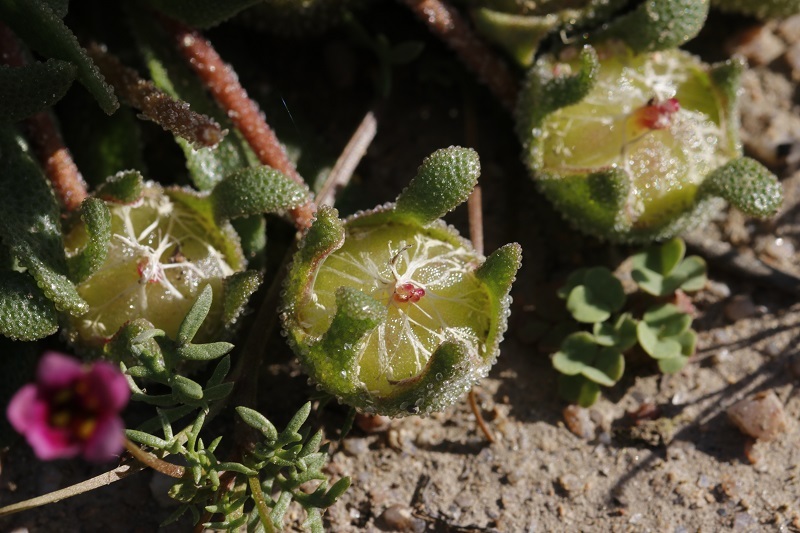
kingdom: Plantae
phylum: Tracheophyta
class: Magnoliopsida
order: Caryophyllales
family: Aizoaceae
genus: Cleretum
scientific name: Cleretum bellidiforme
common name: Livingstone daisy
